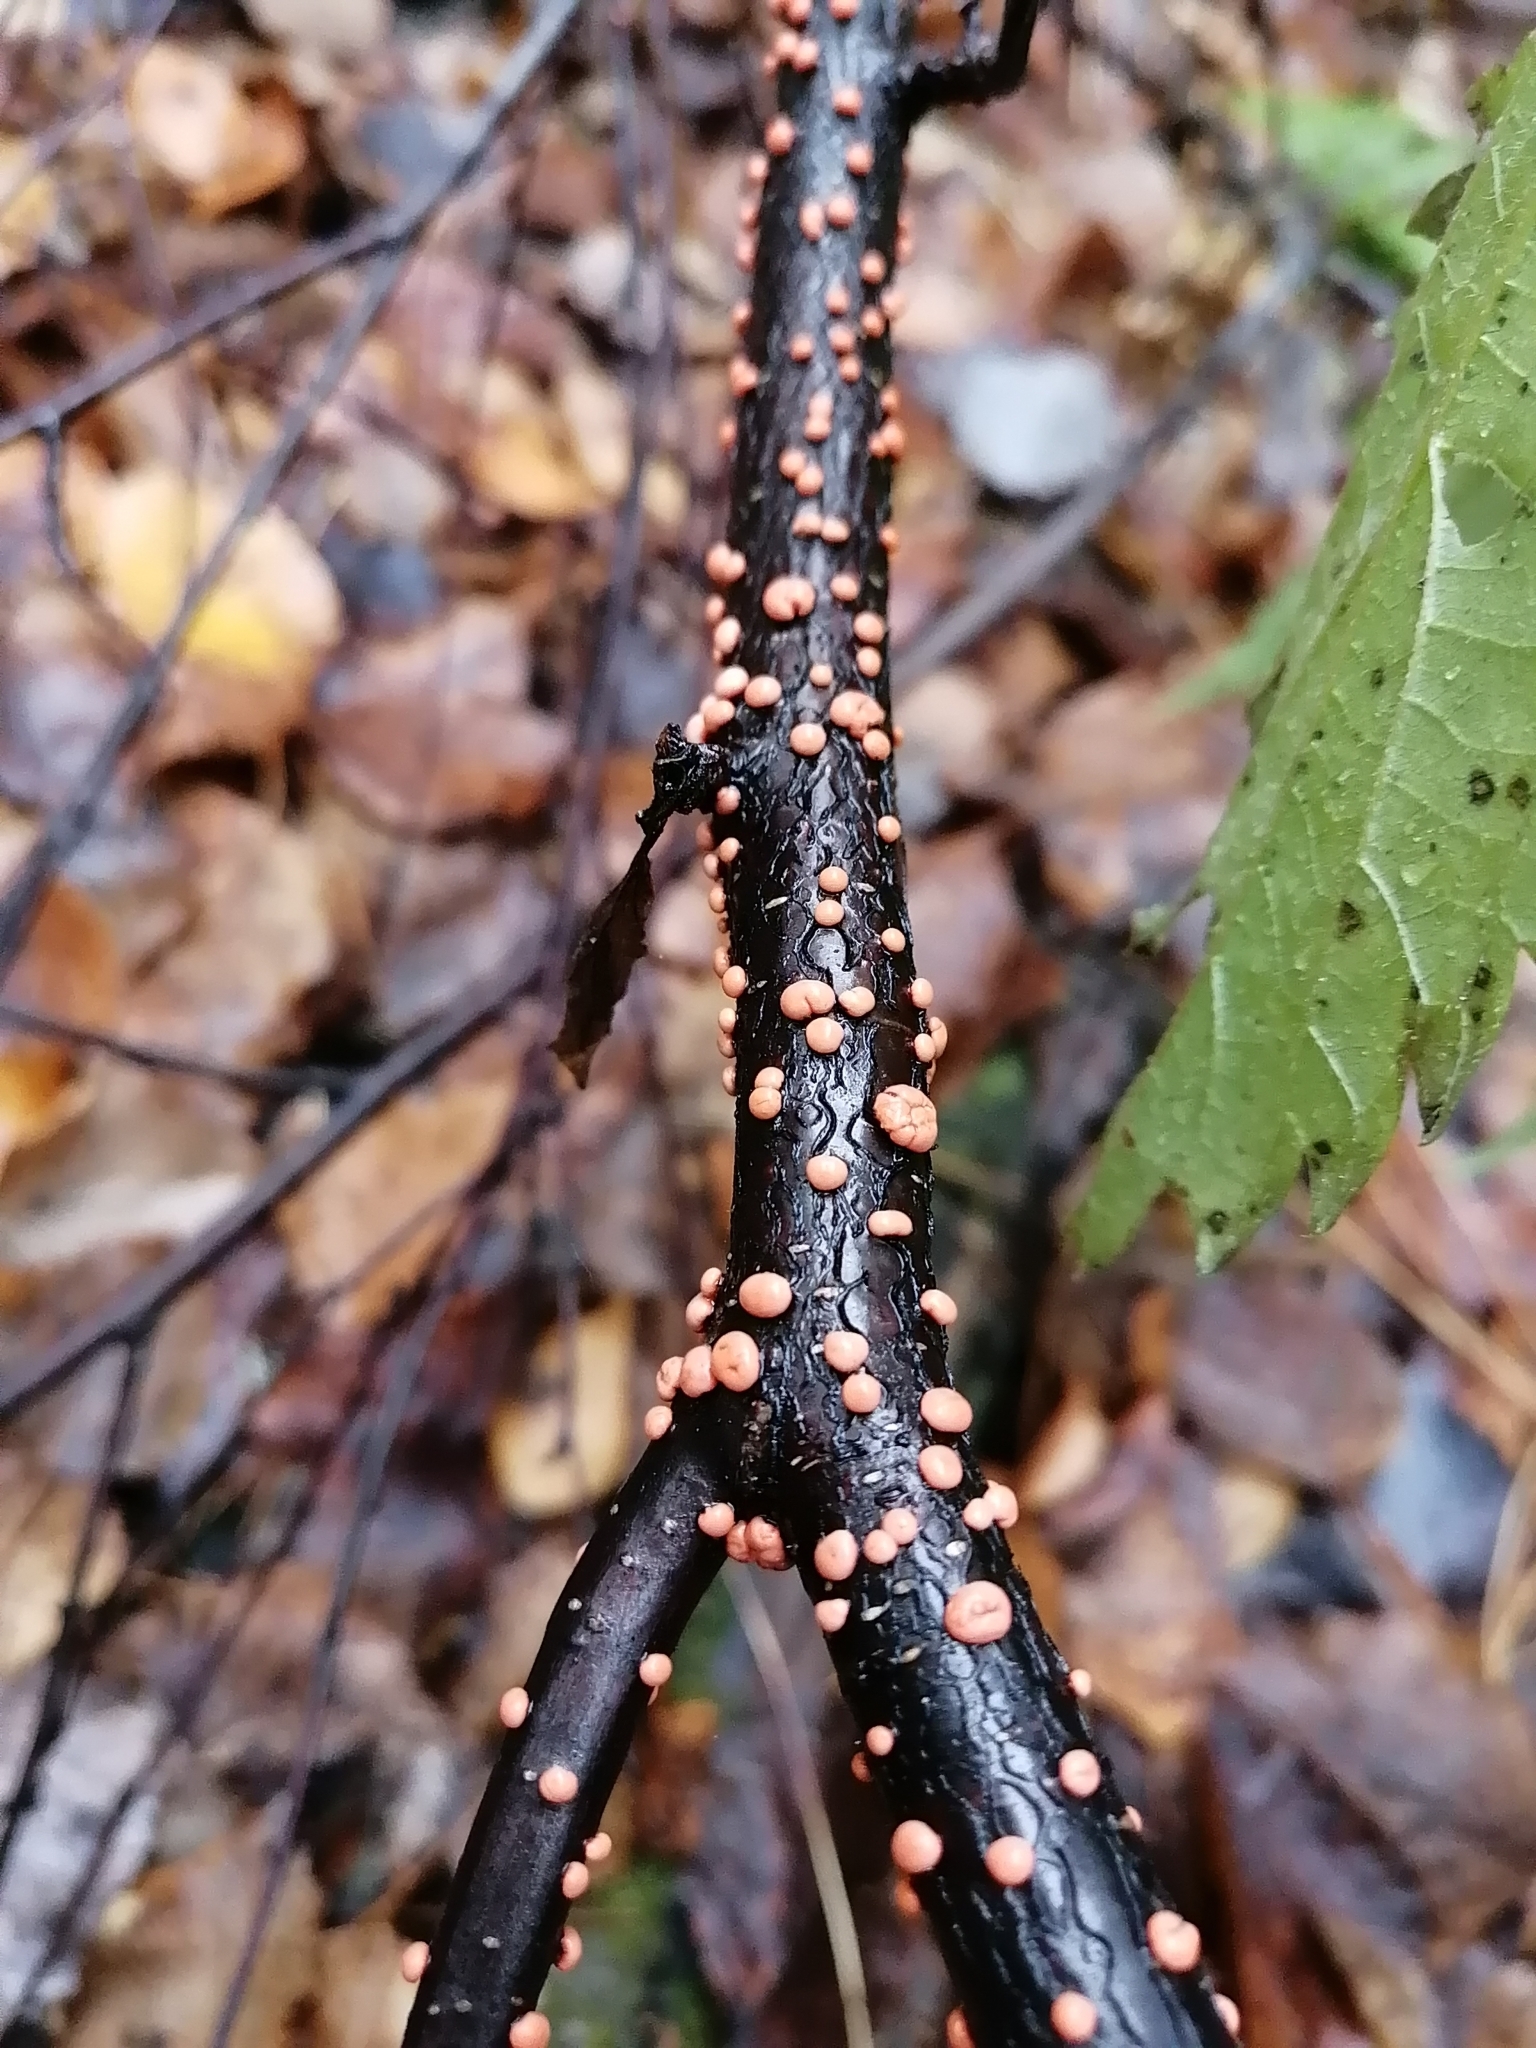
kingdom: Fungi
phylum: Ascomycota
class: Sordariomycetes
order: Hypocreales
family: Nectriaceae
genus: Nectria
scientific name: Nectria cinnabarina
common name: Coral spot
